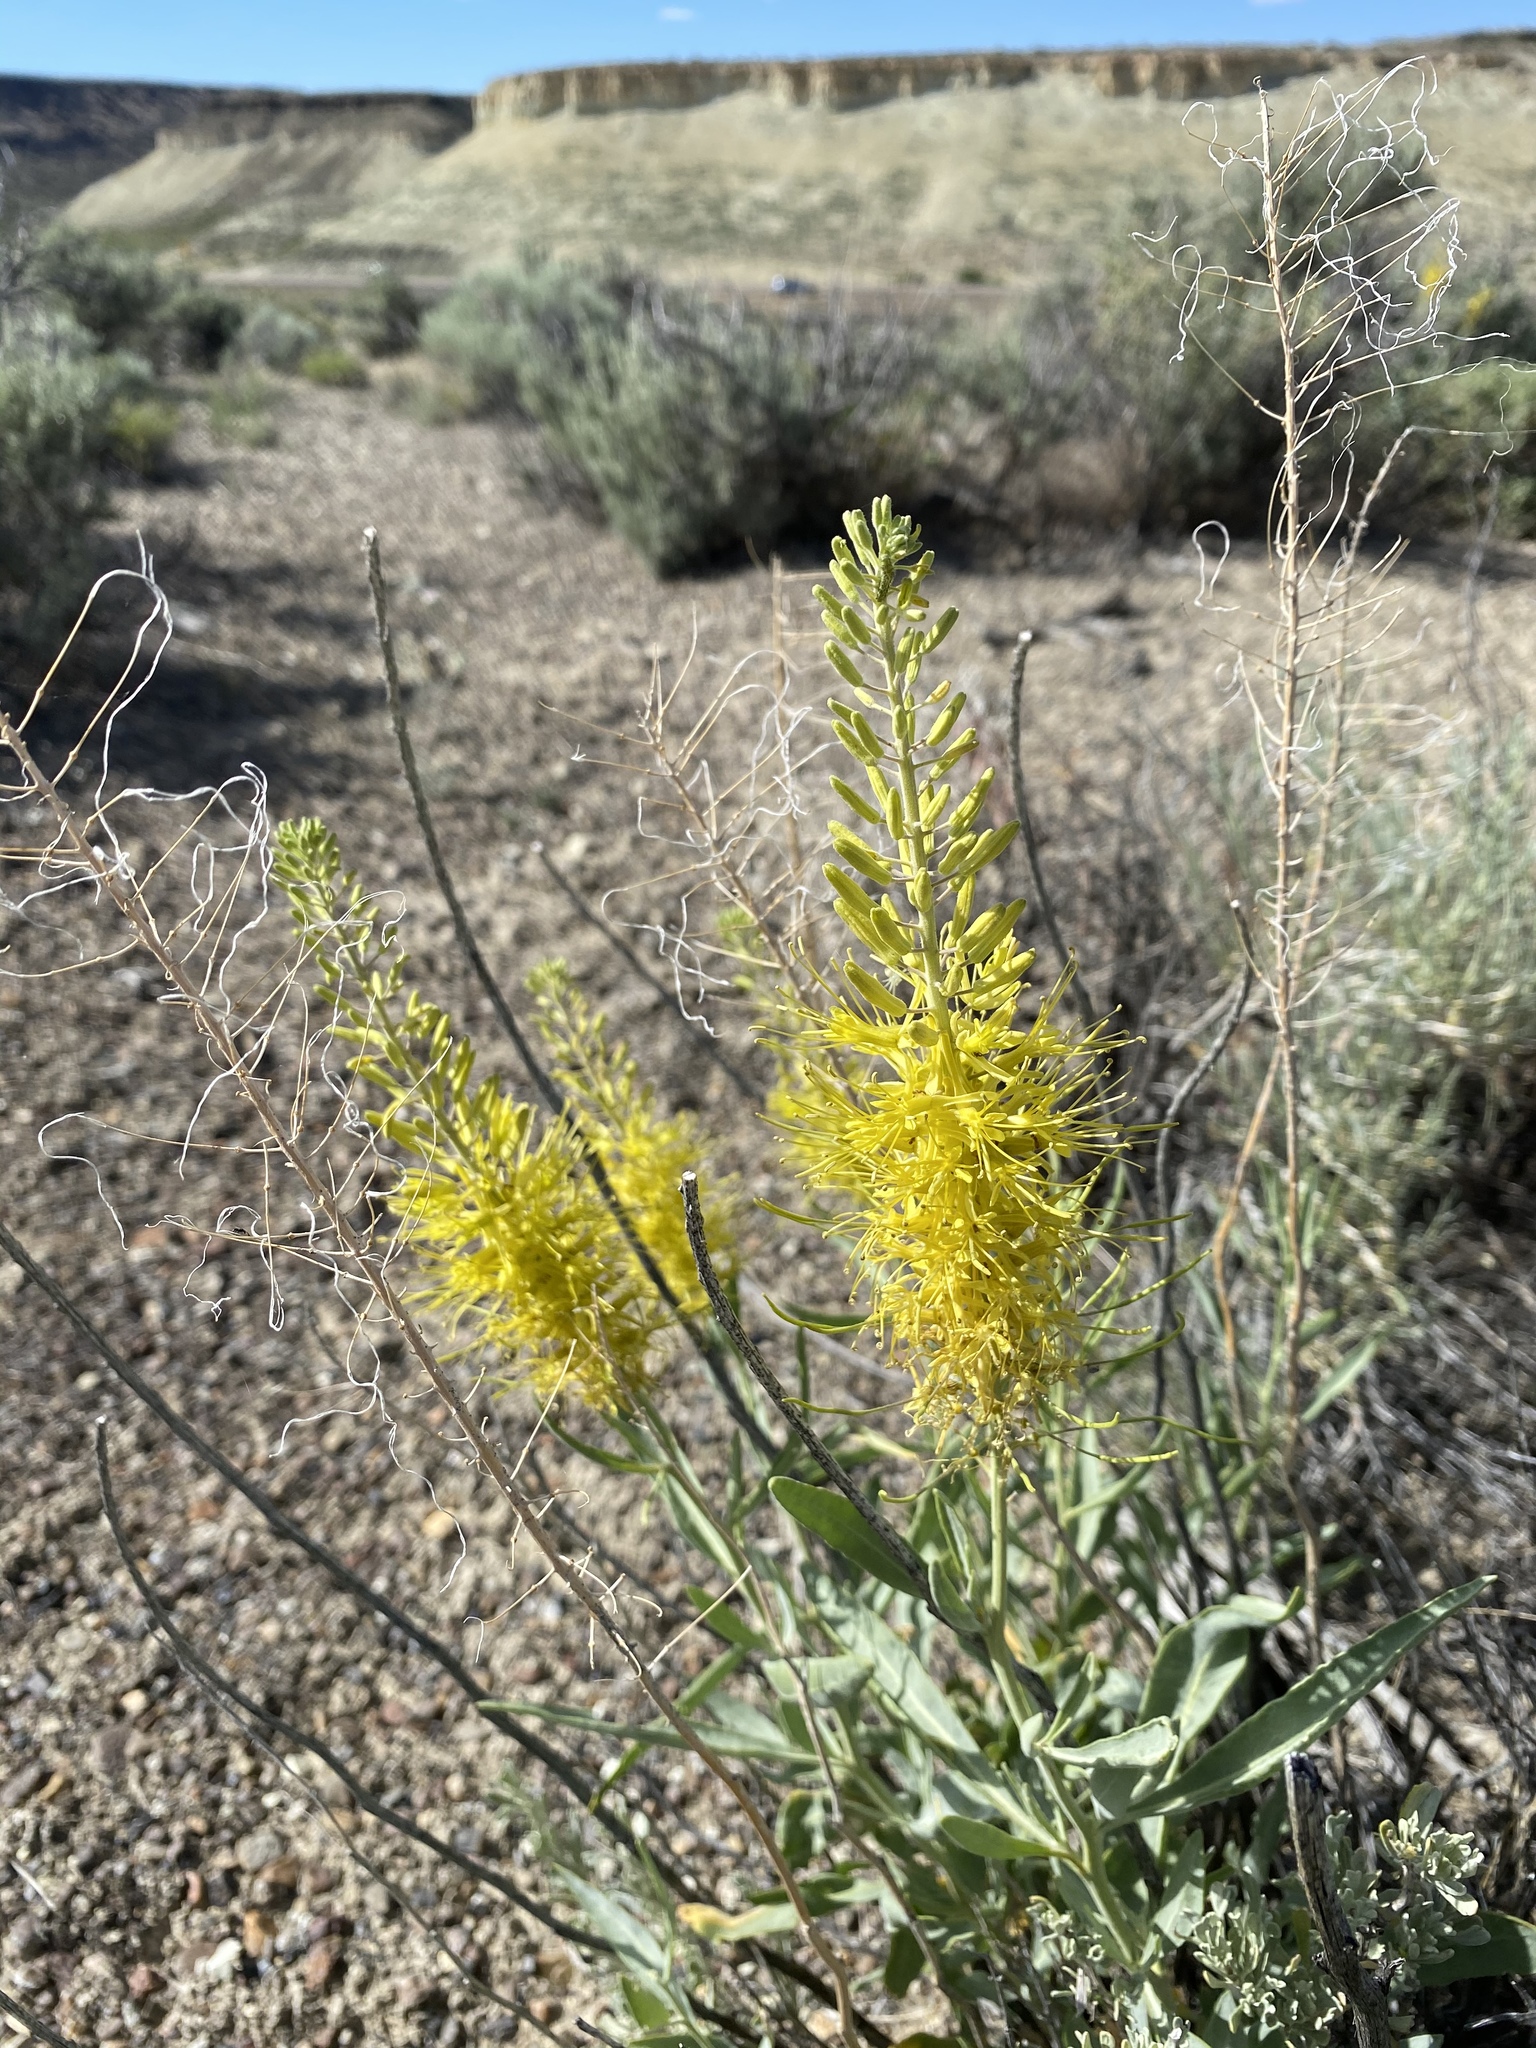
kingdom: Plantae
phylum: Tracheophyta
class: Magnoliopsida
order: Brassicales
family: Brassicaceae
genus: Stanleya
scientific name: Stanleya pinnata
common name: Prince's-plume
